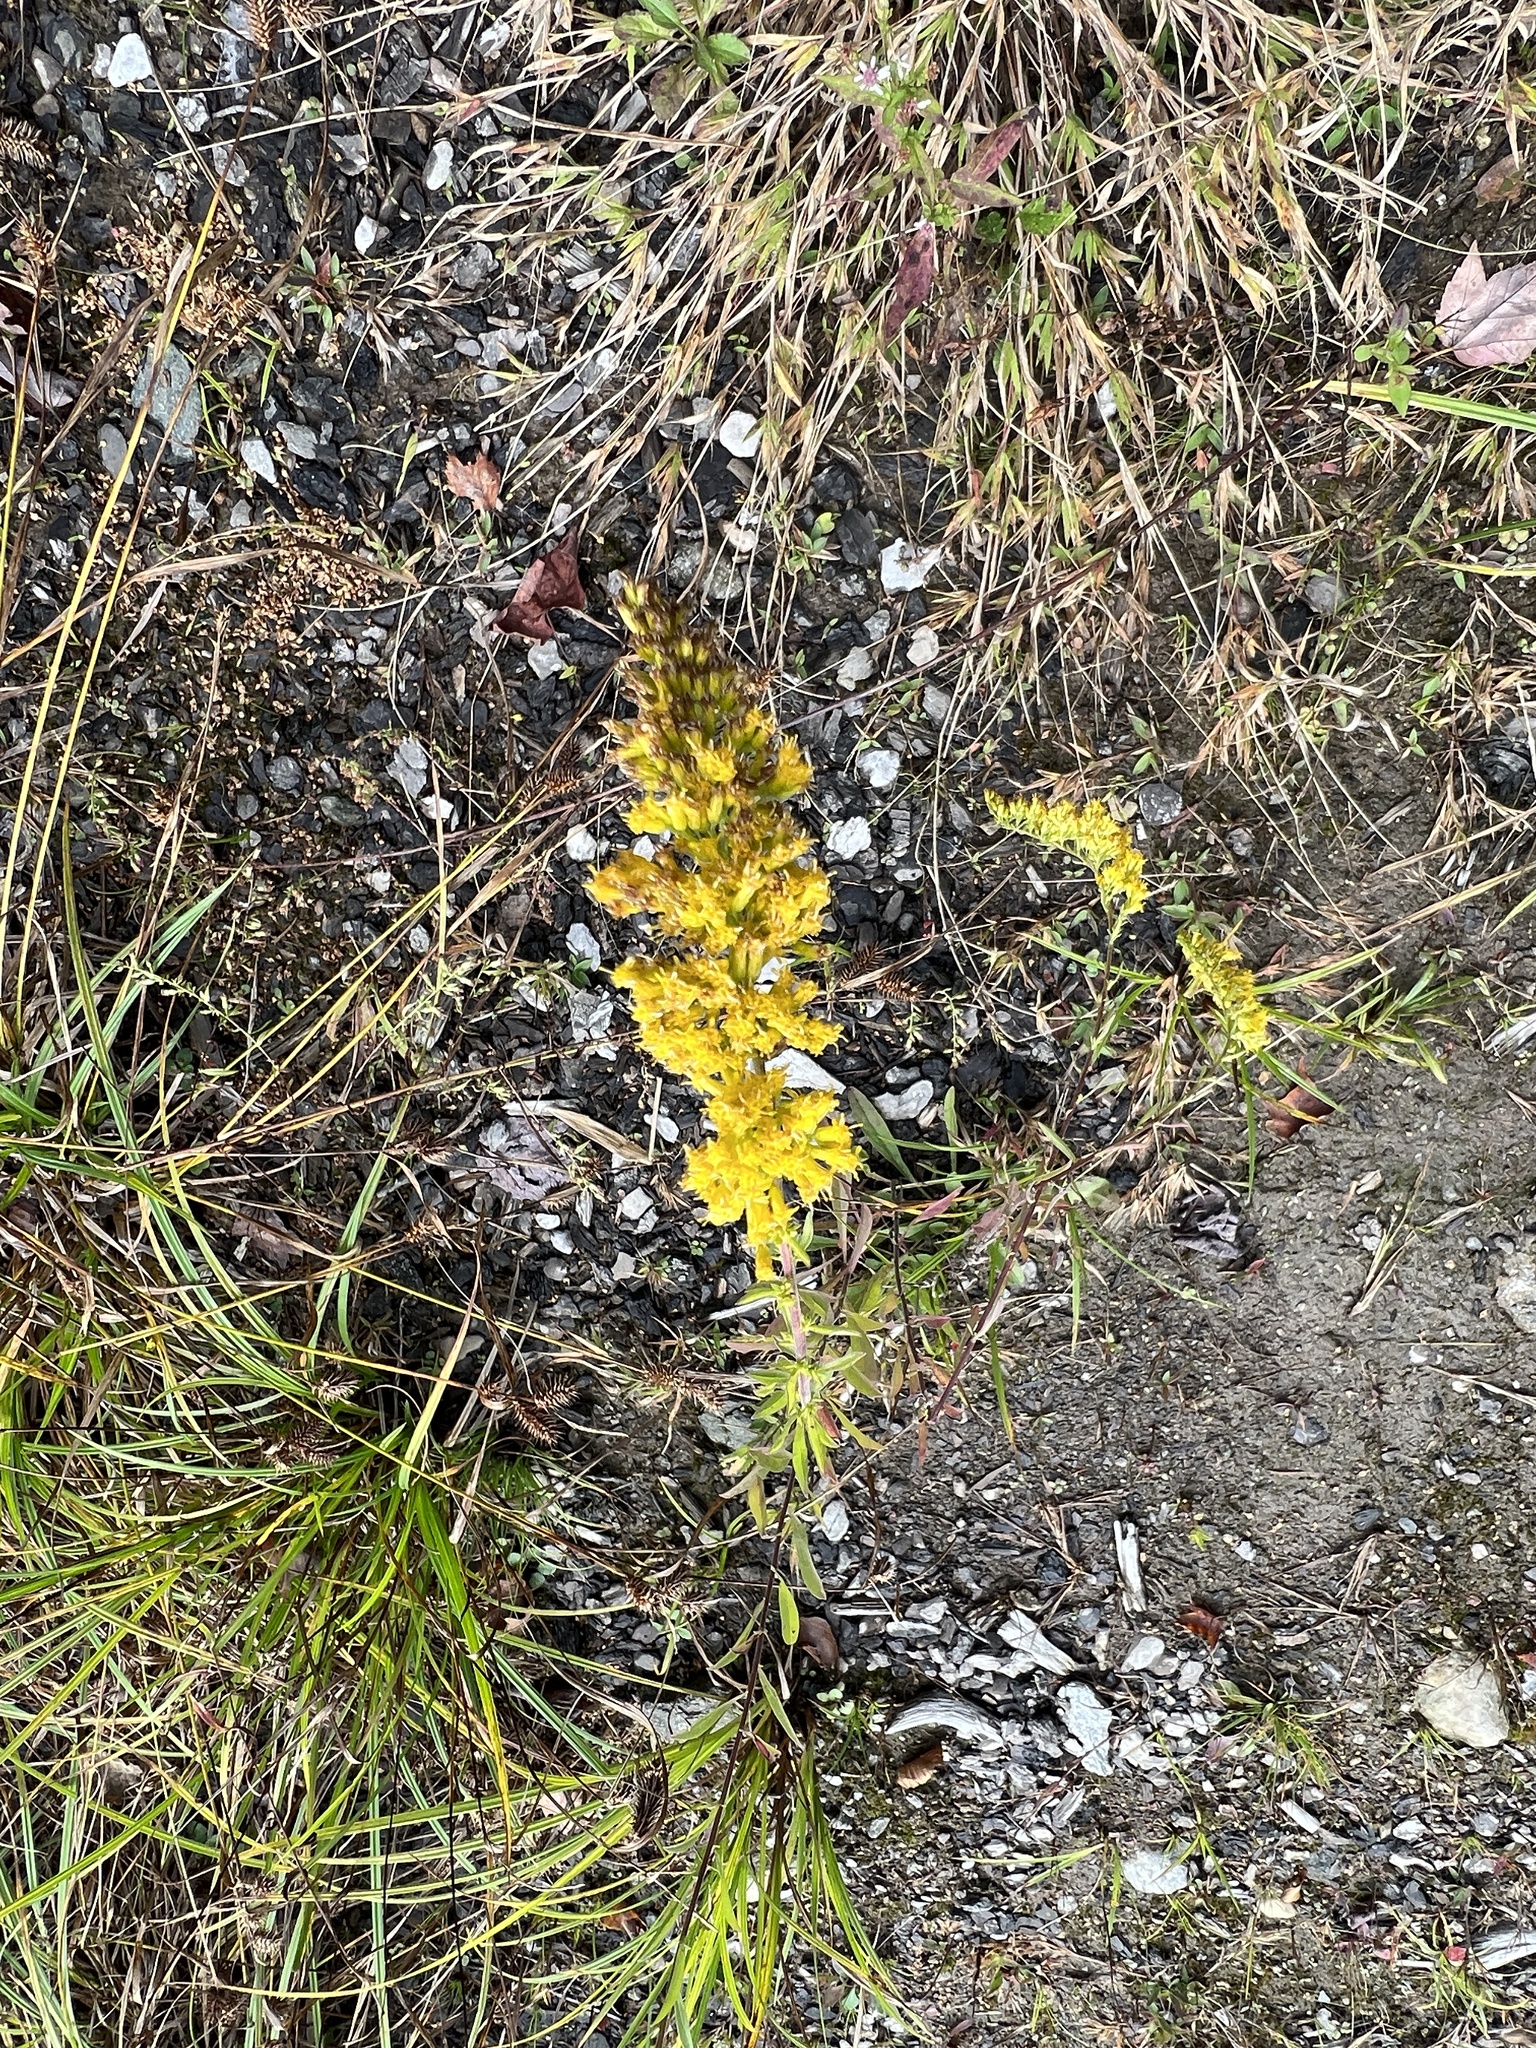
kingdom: Plantae
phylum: Tracheophyta
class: Magnoliopsida
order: Asterales
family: Asteraceae
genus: Solidago
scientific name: Solidago nemoralis
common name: Grey goldenrod
